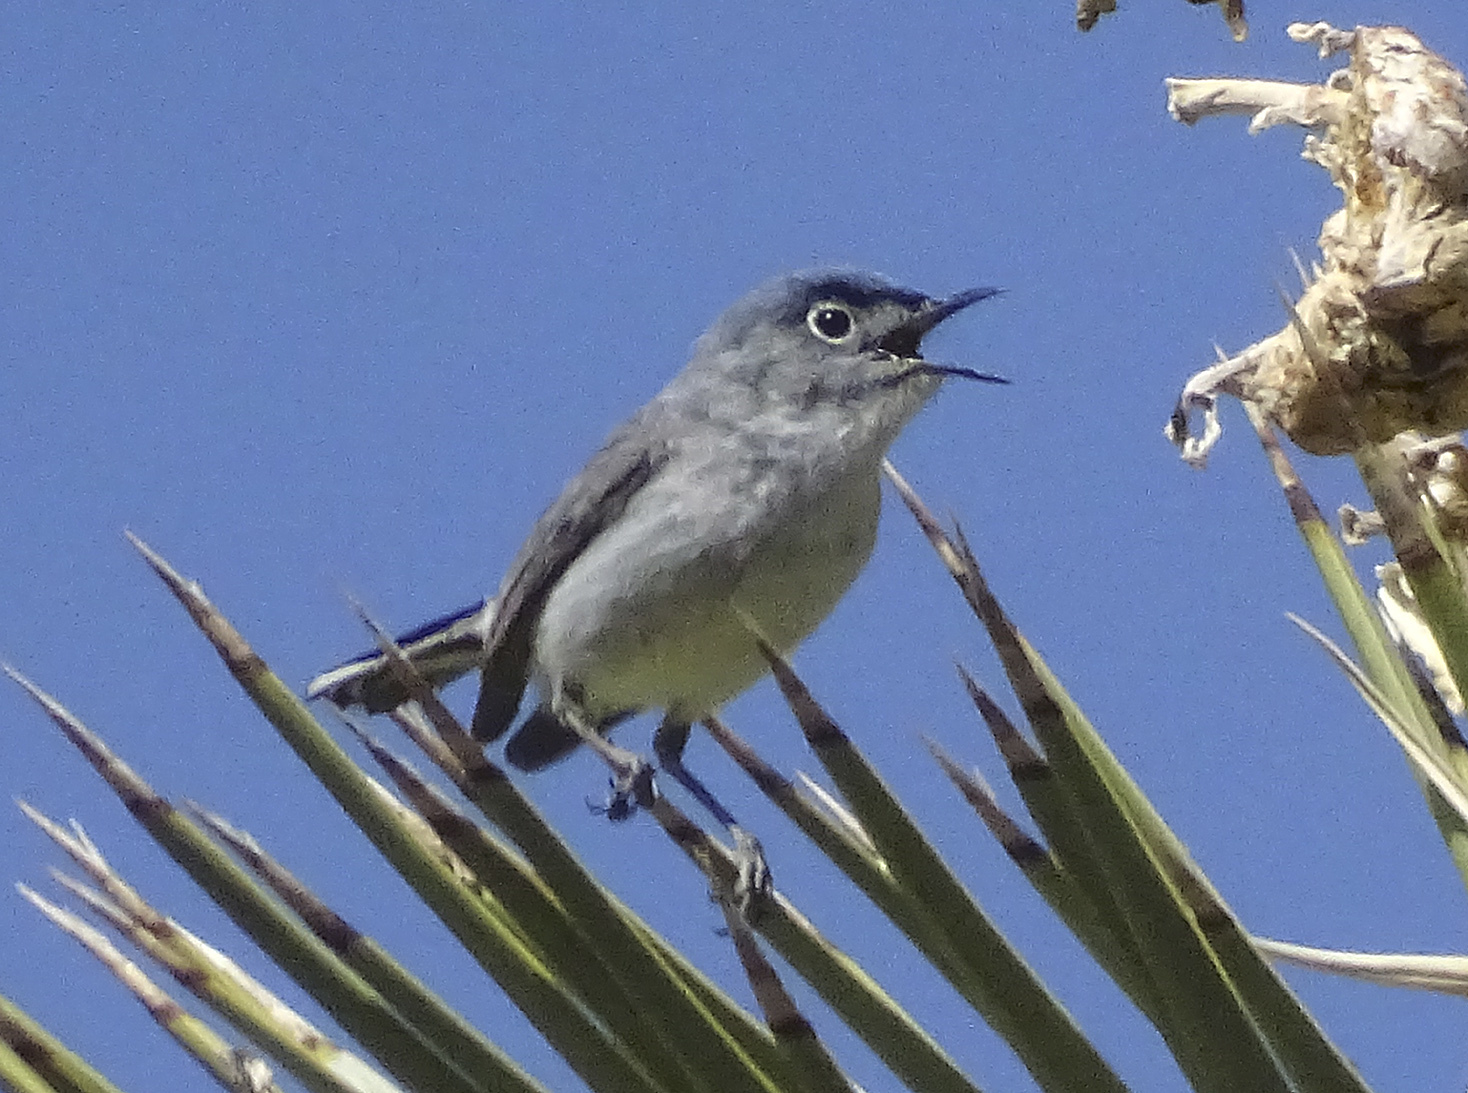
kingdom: Animalia
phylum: Chordata
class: Aves
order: Passeriformes
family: Polioptilidae
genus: Polioptila
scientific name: Polioptila caerulea
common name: Blue-gray gnatcatcher
